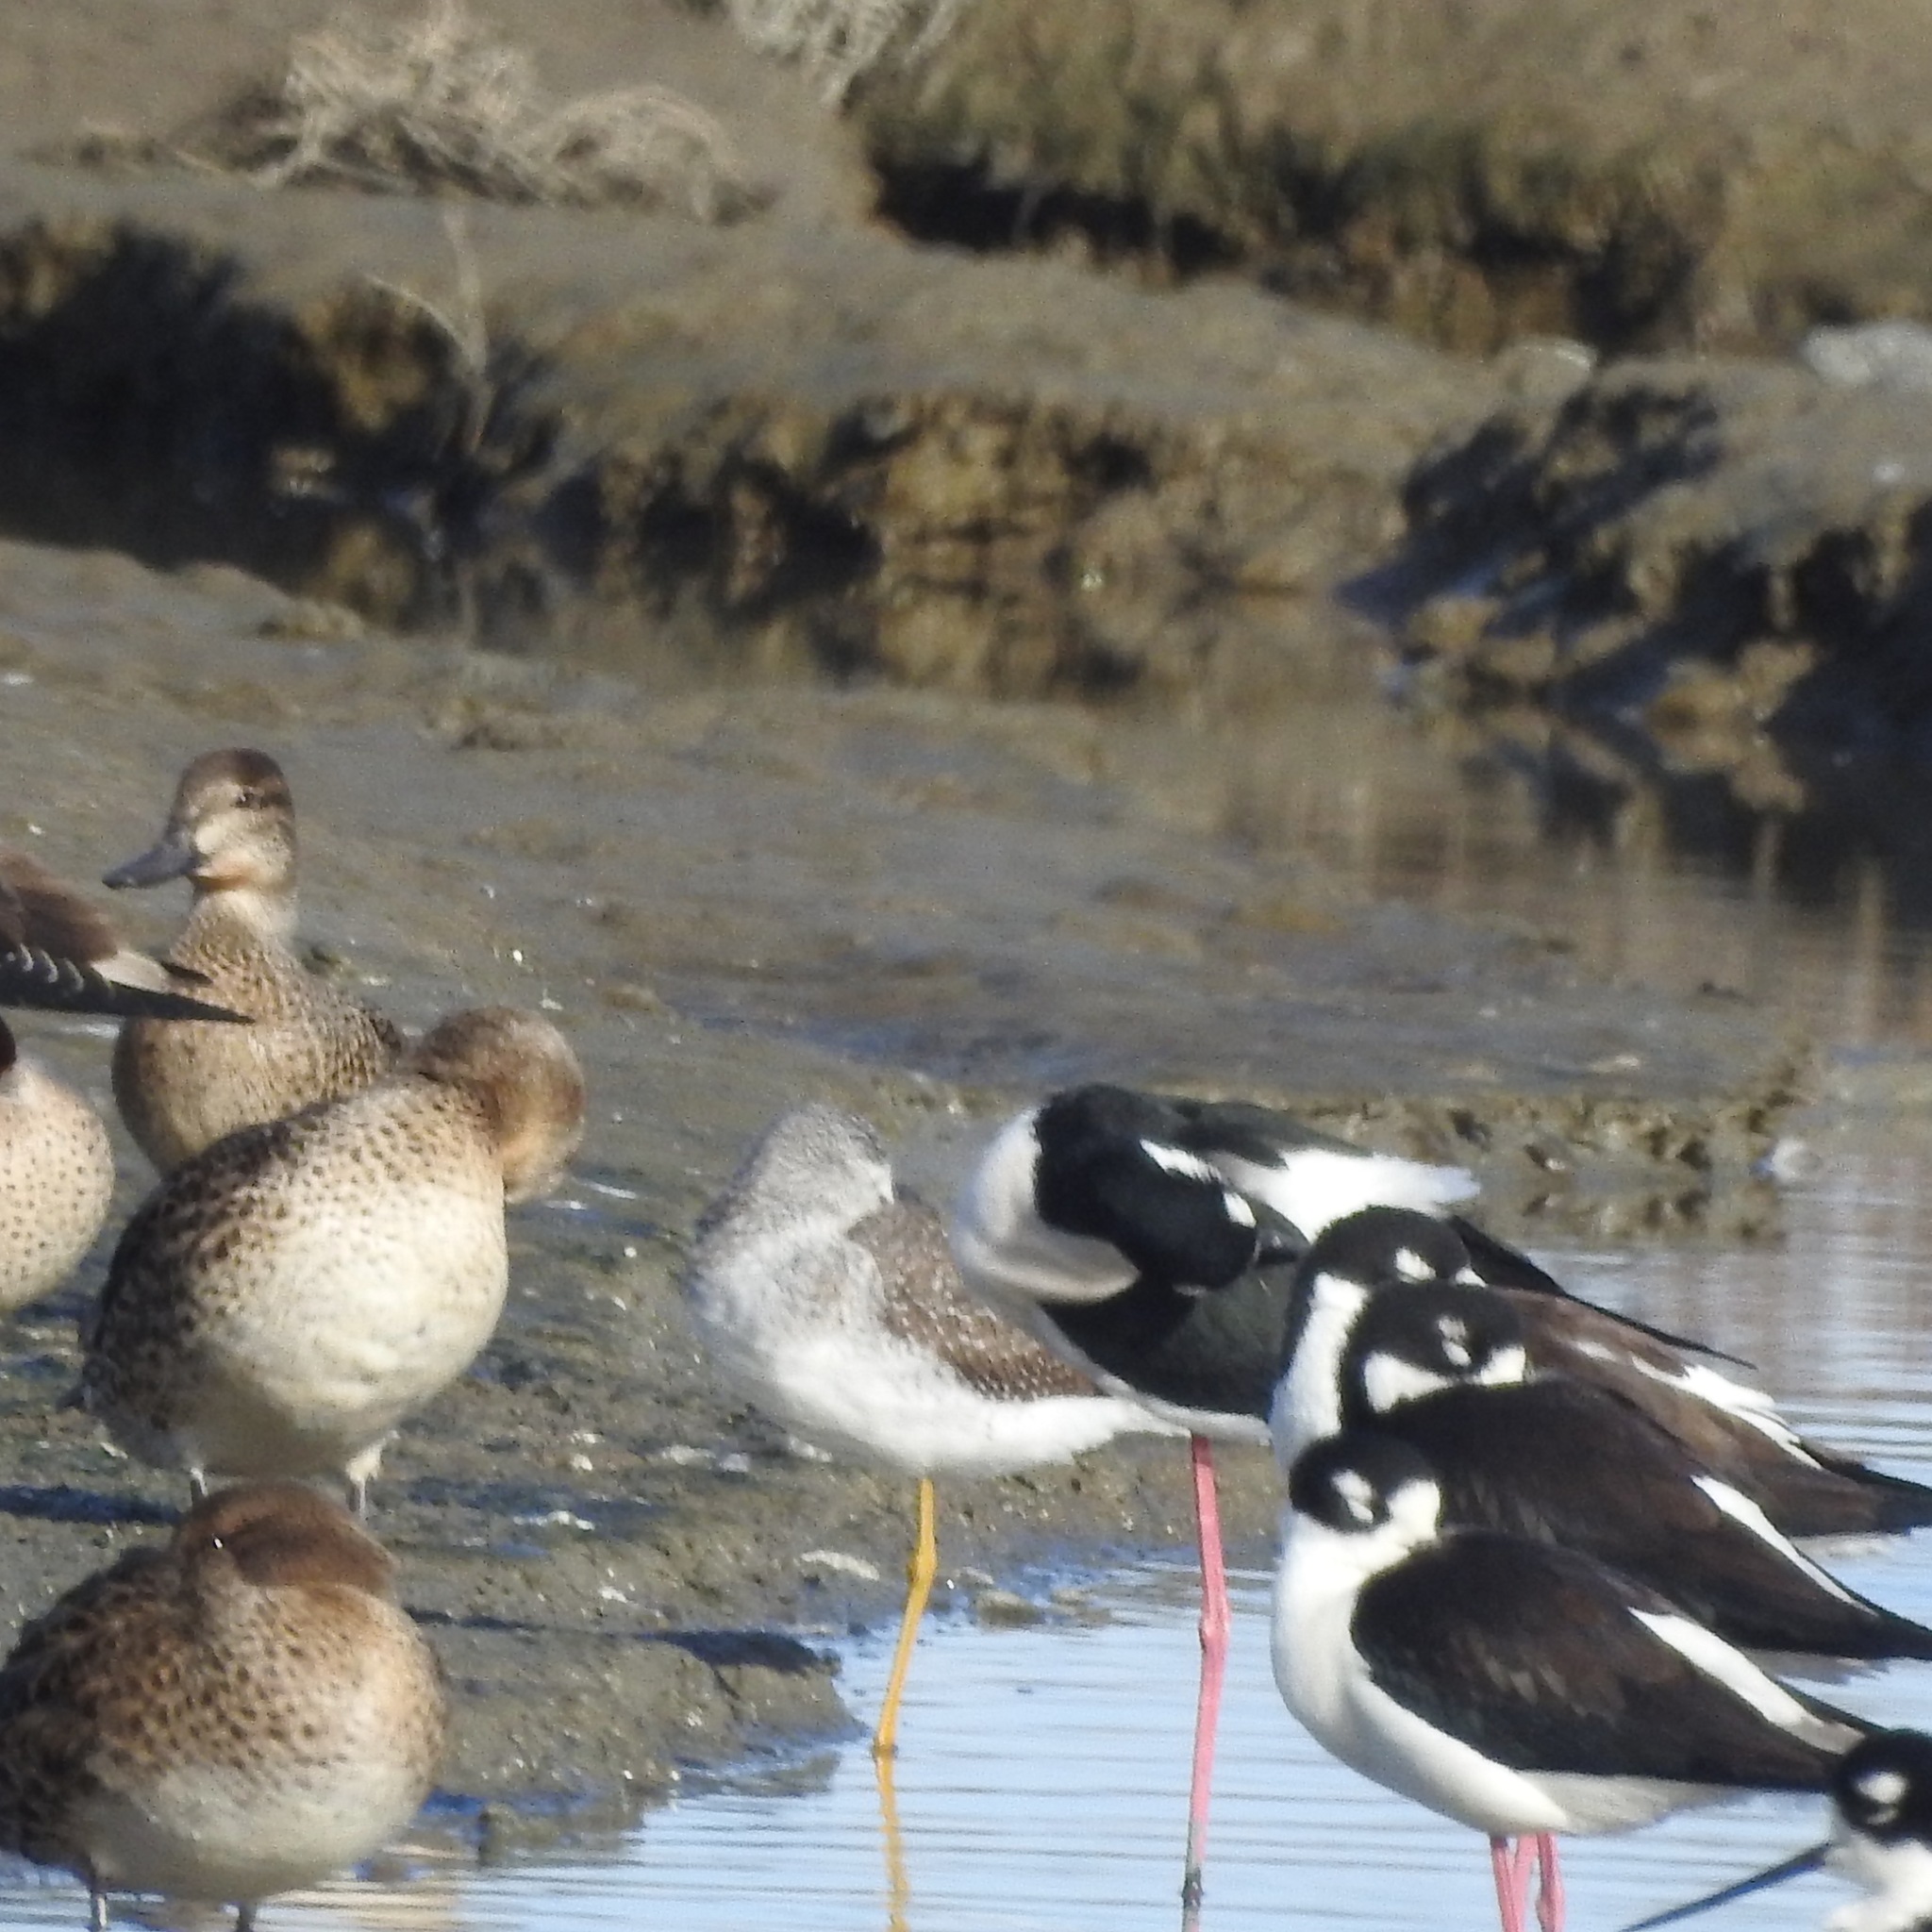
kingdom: Animalia
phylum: Chordata
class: Aves
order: Charadriiformes
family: Scolopacidae
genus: Tringa
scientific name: Tringa melanoleuca
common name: Greater yellowlegs
